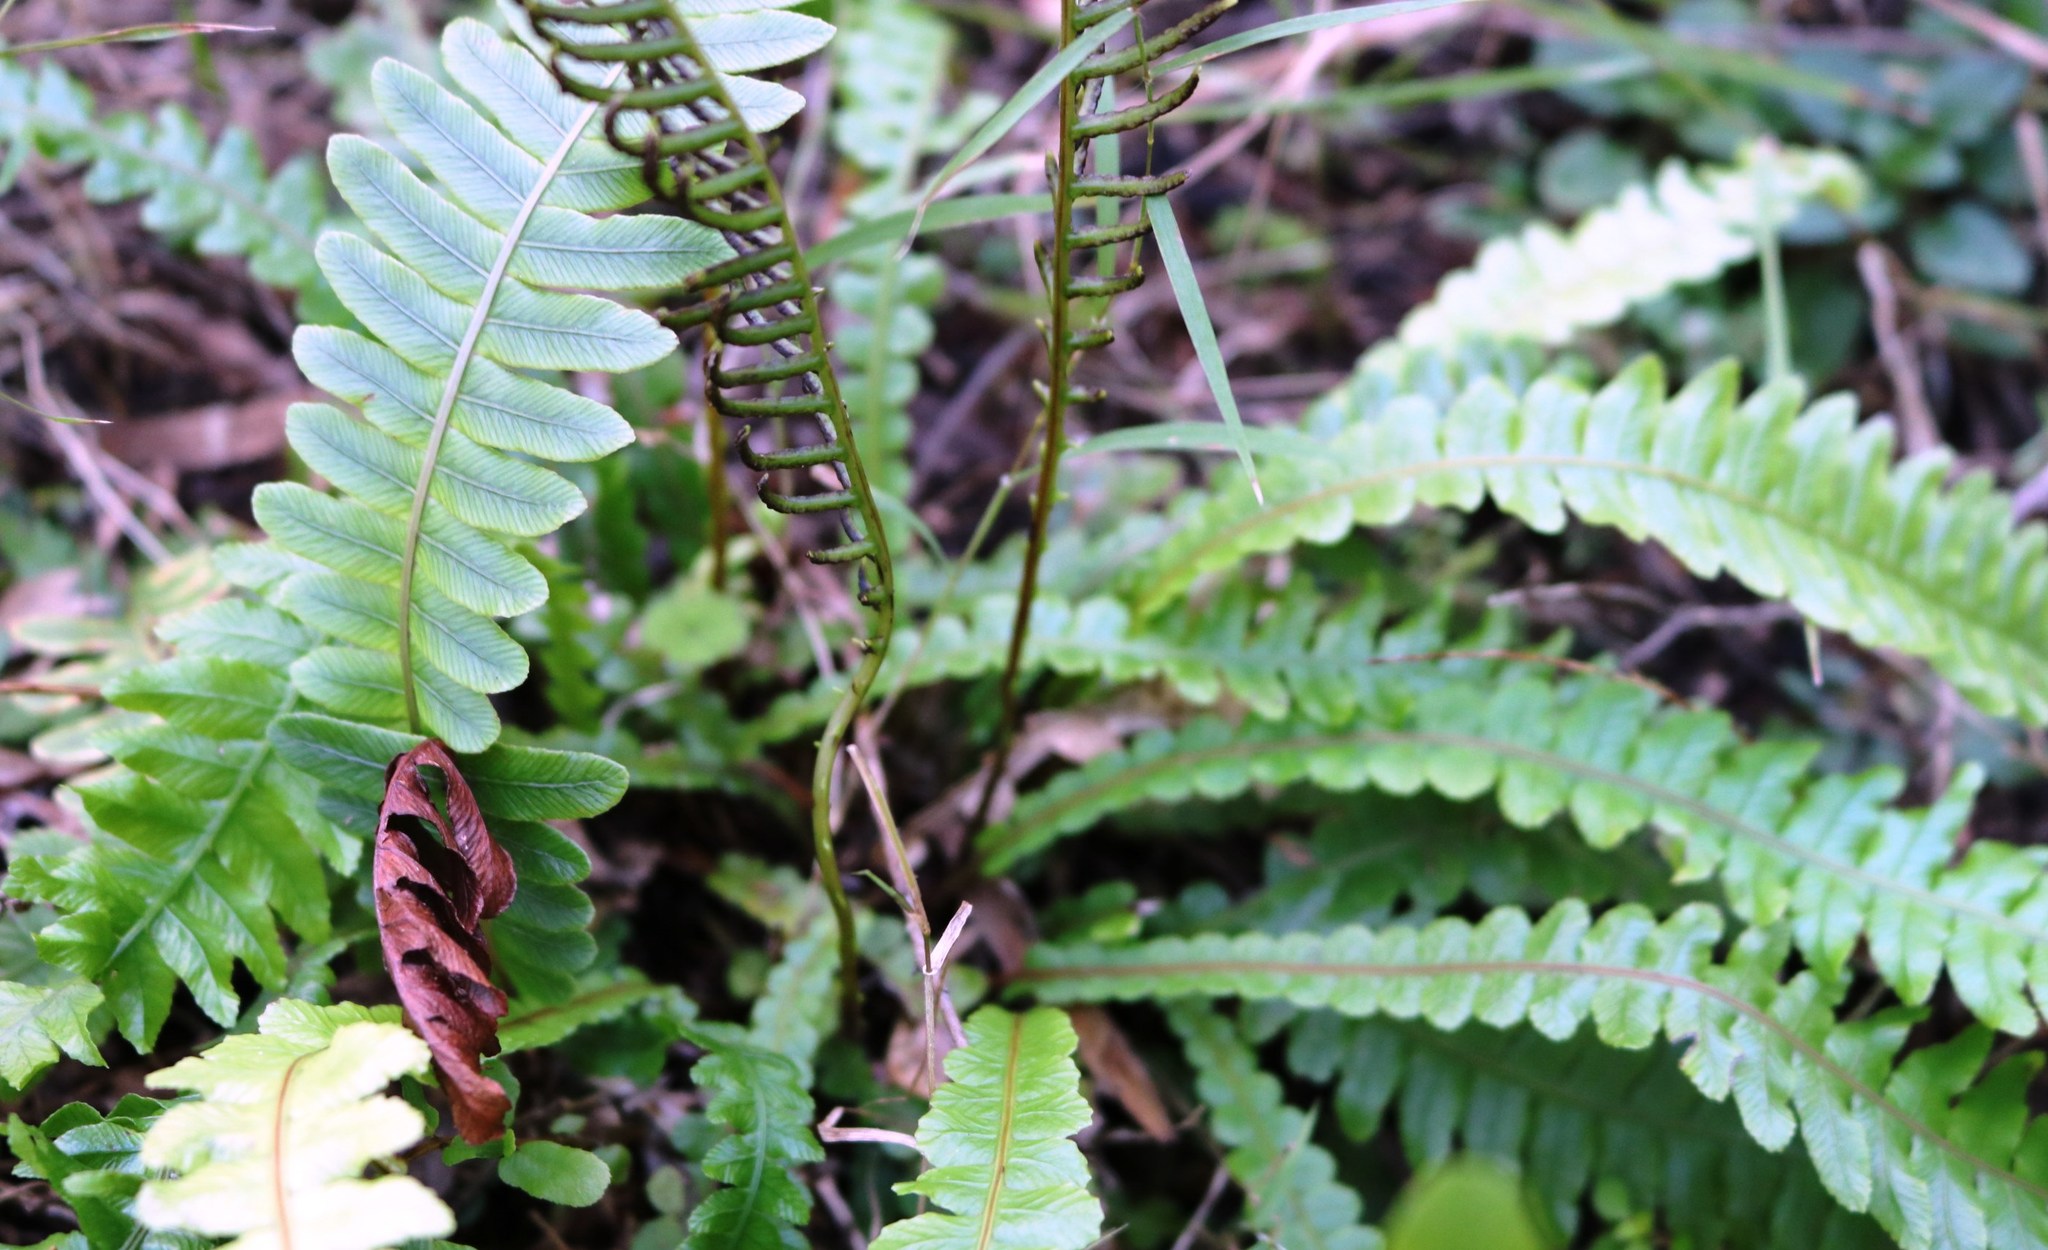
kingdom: Plantae
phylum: Tracheophyta
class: Polypodiopsida
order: Polypodiales
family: Blechnaceae
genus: Austroblechnum
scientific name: Austroblechnum lanceolatum
